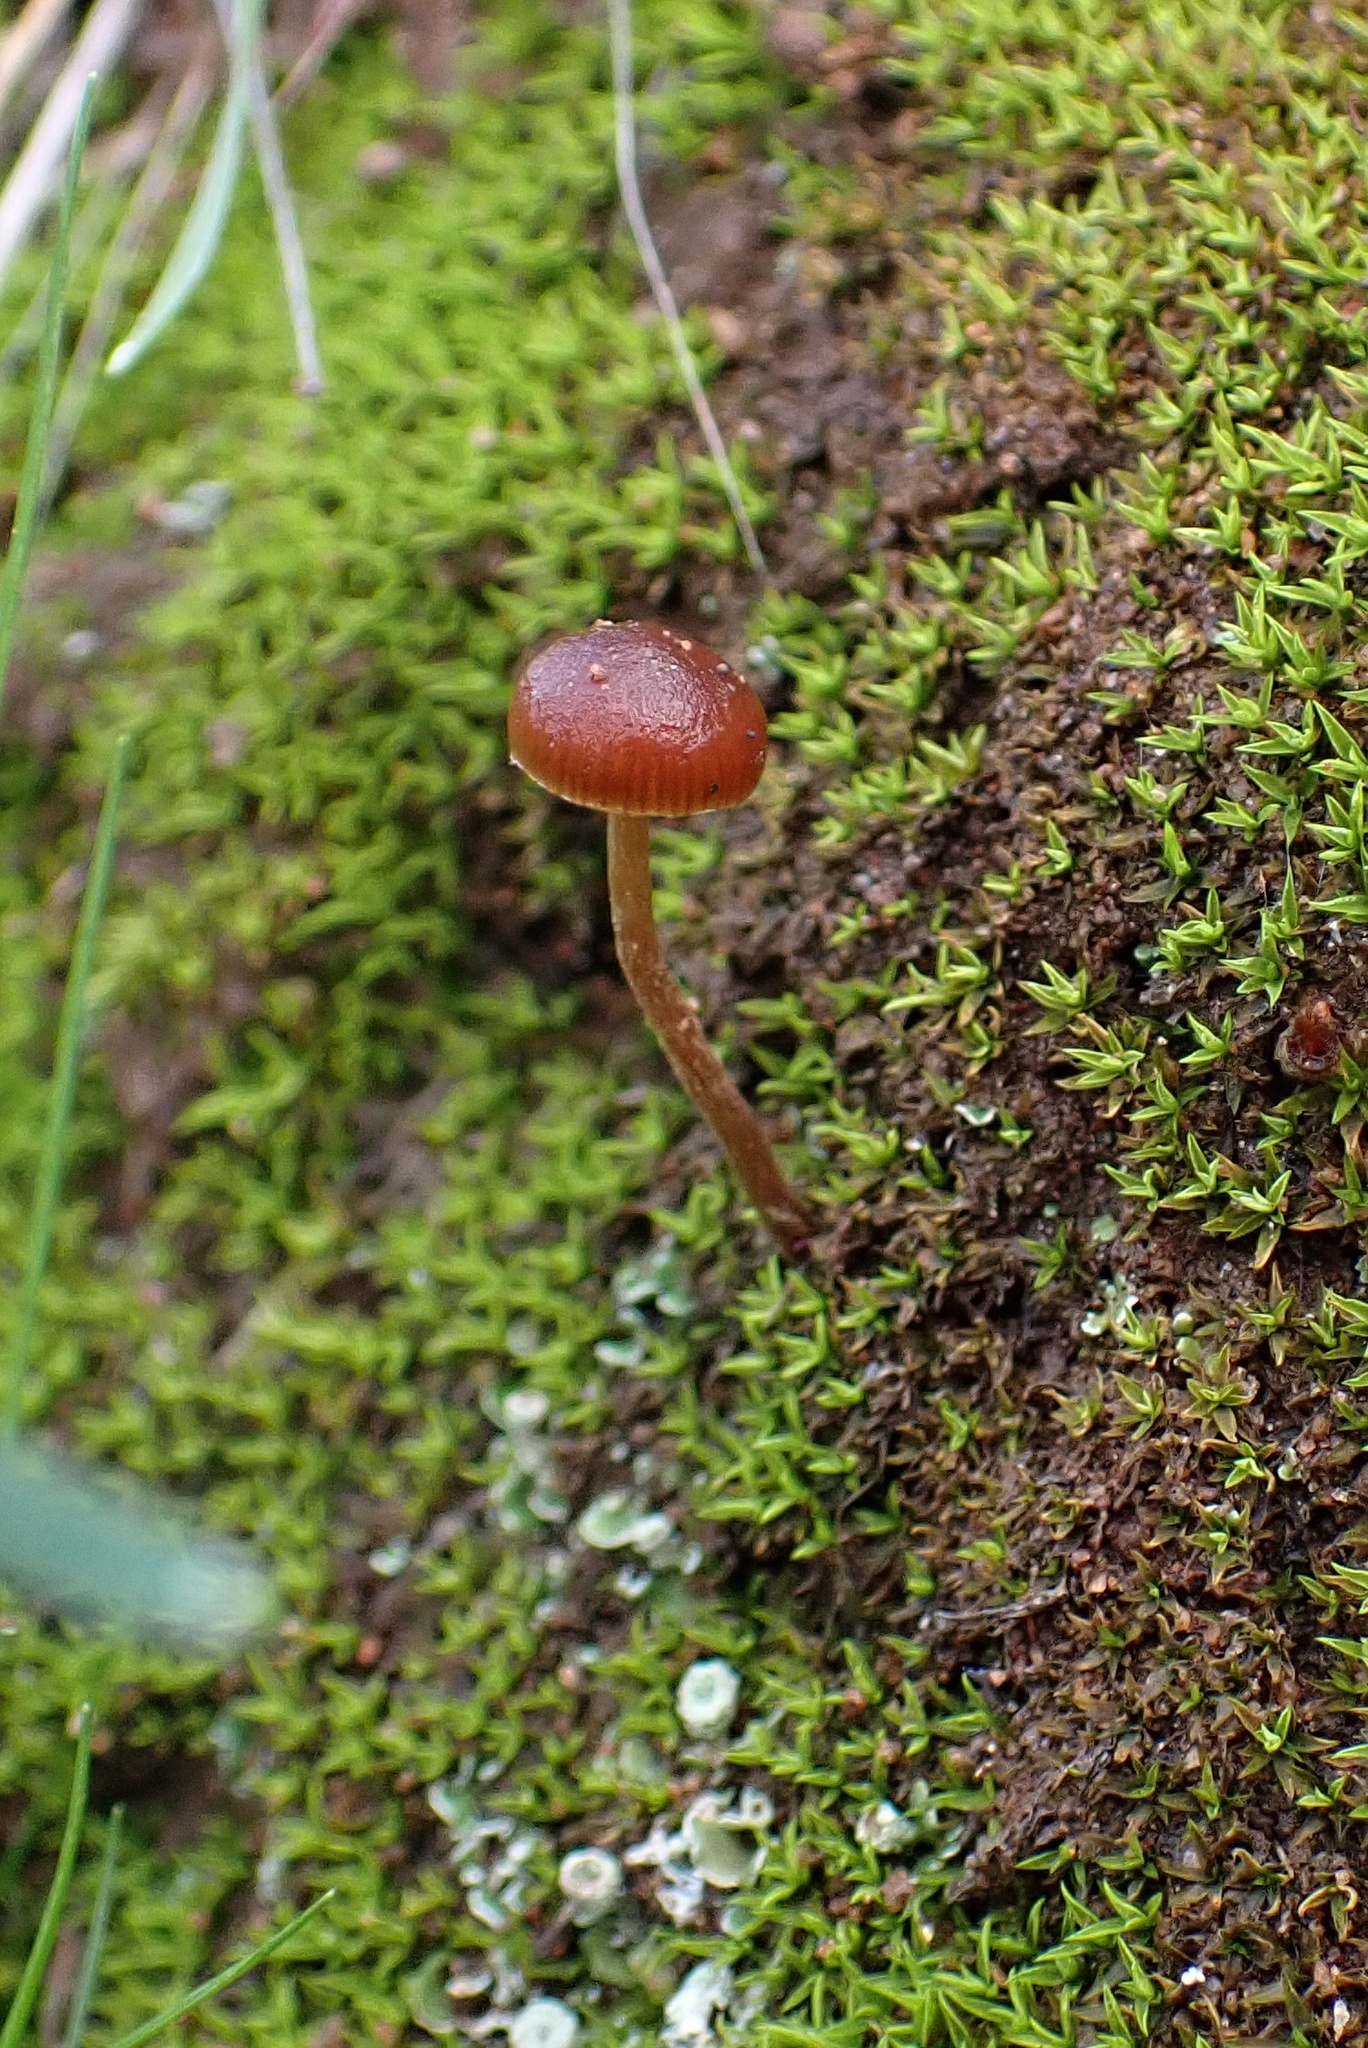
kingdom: Fungi
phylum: Basidiomycota
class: Agaricomycetes
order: Agaricales
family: Strophariaceae
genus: Deconica
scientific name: Deconica montana
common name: Mountain moss deconica
